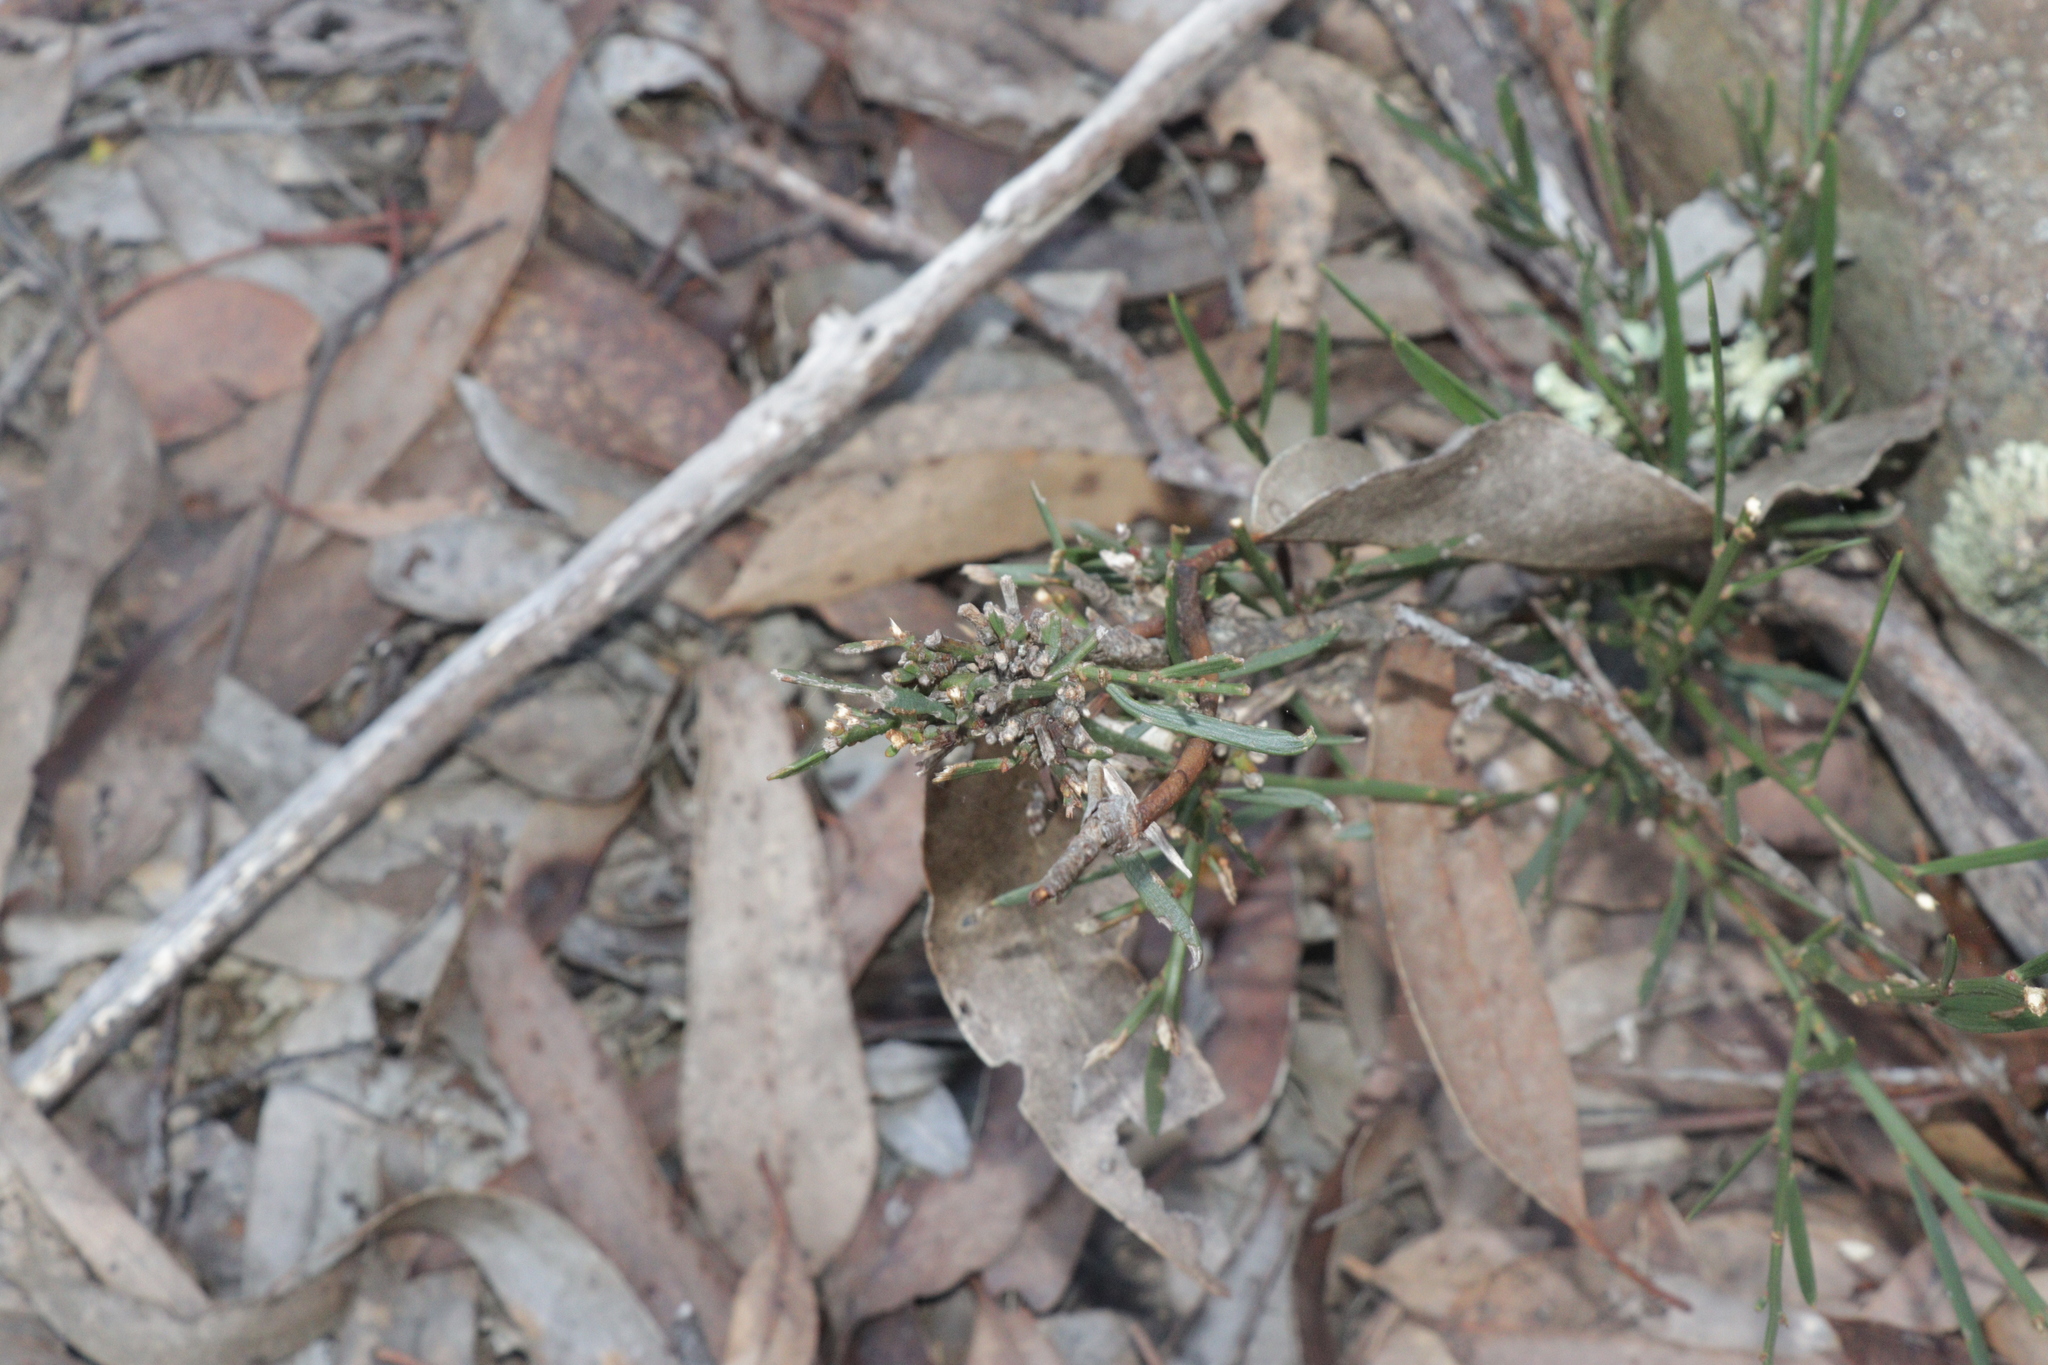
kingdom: Plantae
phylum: Tracheophyta
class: Magnoliopsida
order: Fabales
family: Fabaceae
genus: Daviesia
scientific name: Daviesia leptophylla
